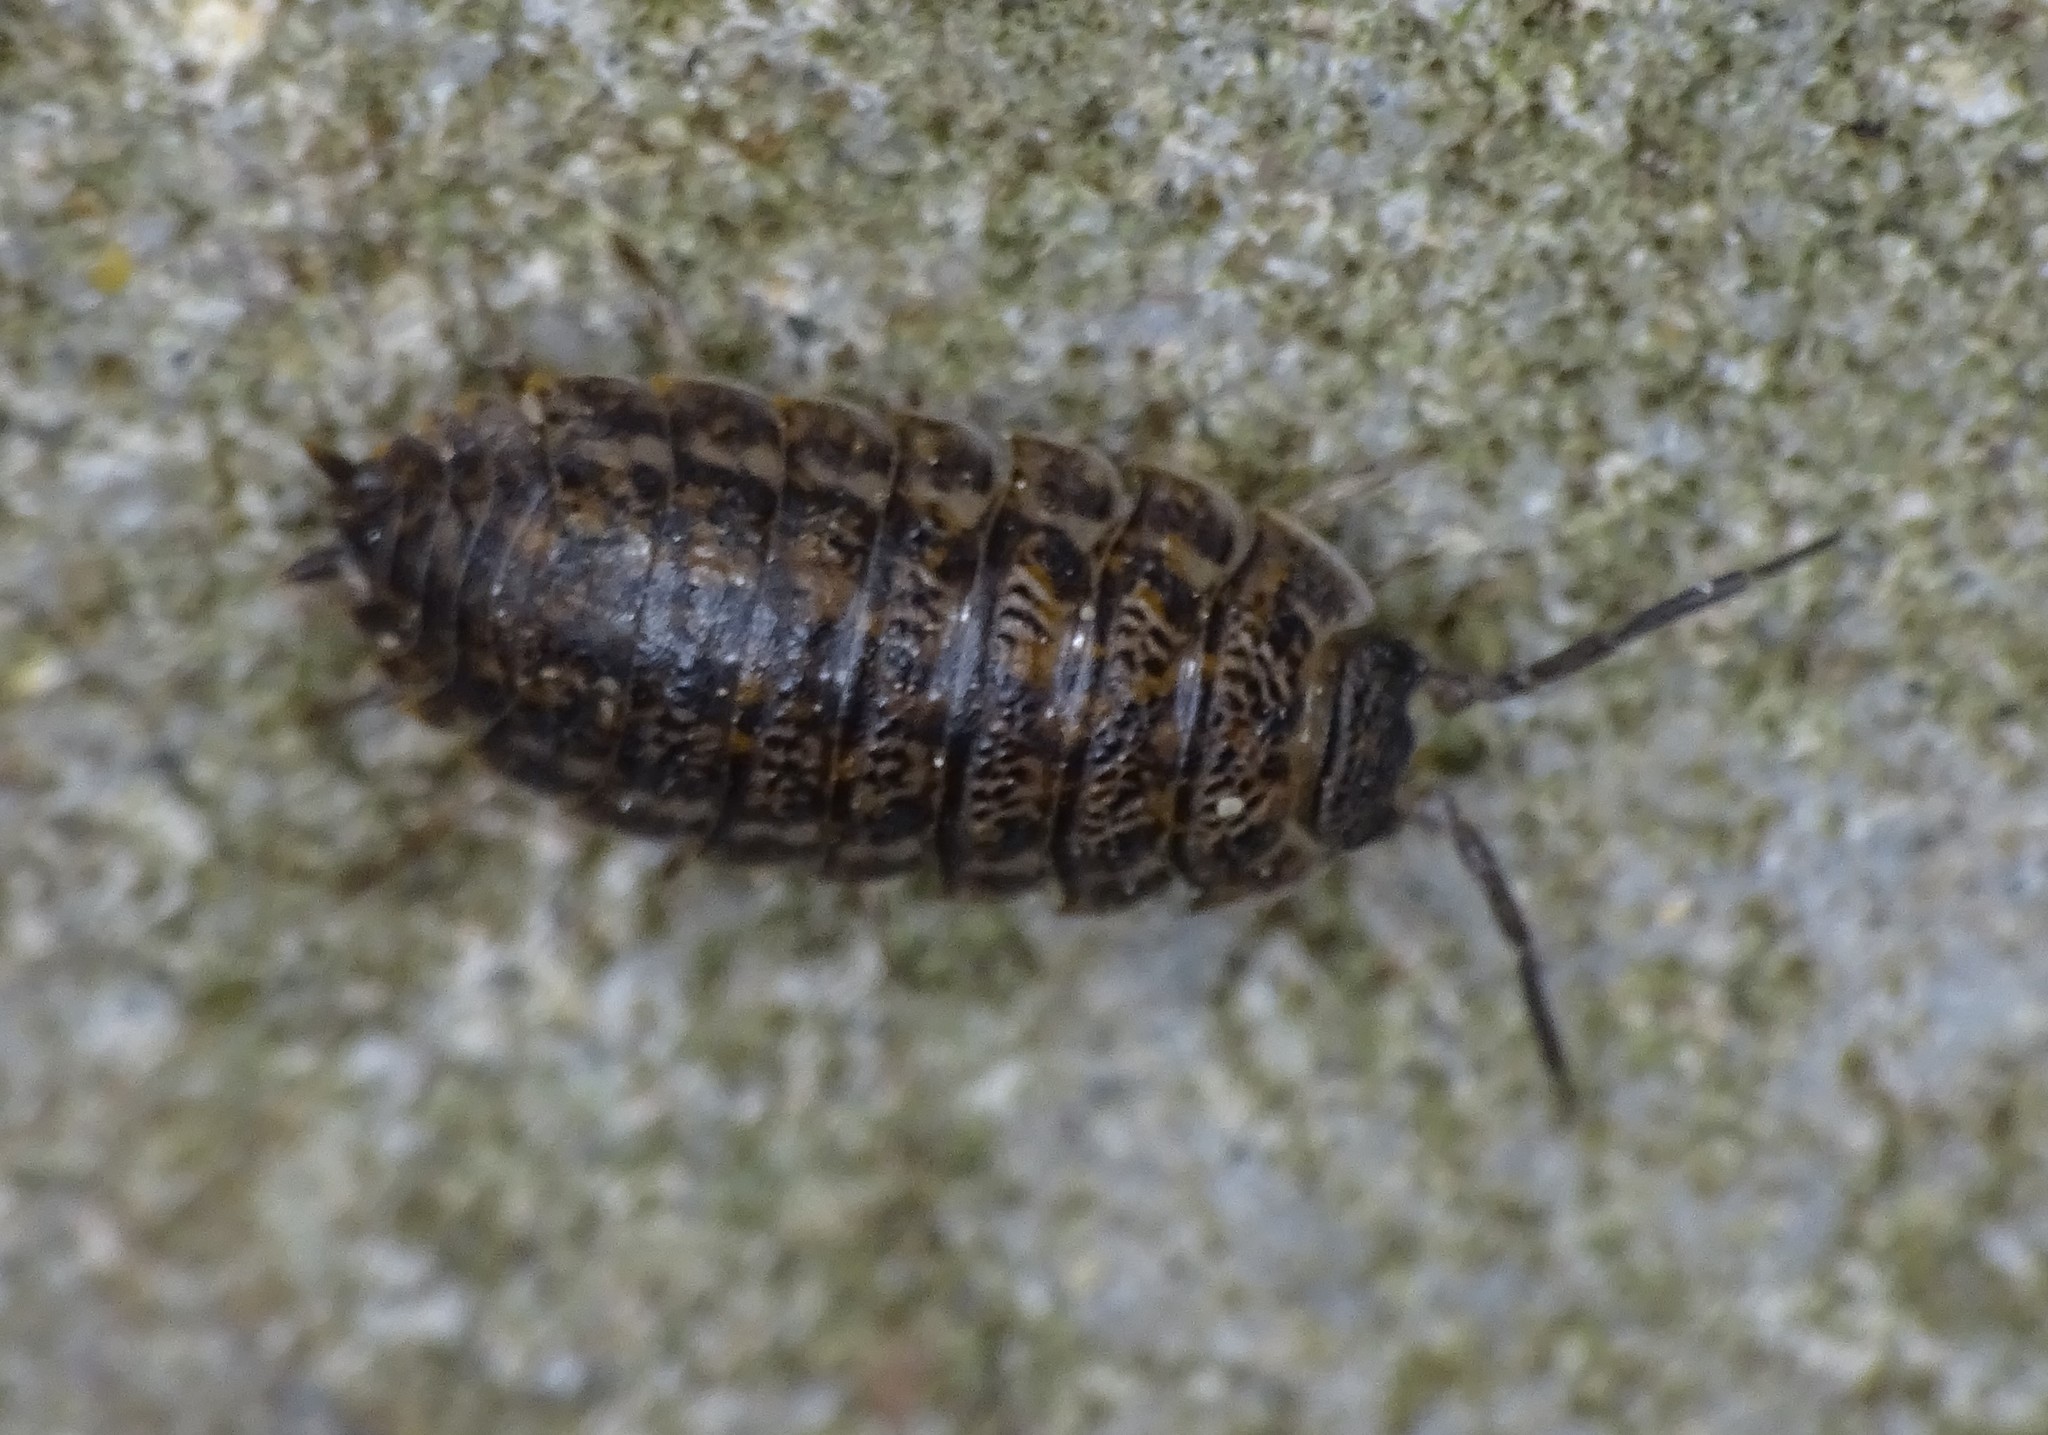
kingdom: Animalia
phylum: Arthropoda
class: Malacostraca
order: Isopoda
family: Trachelipodidae
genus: Trachelipus
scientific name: Trachelipus rathkii
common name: Isopod
